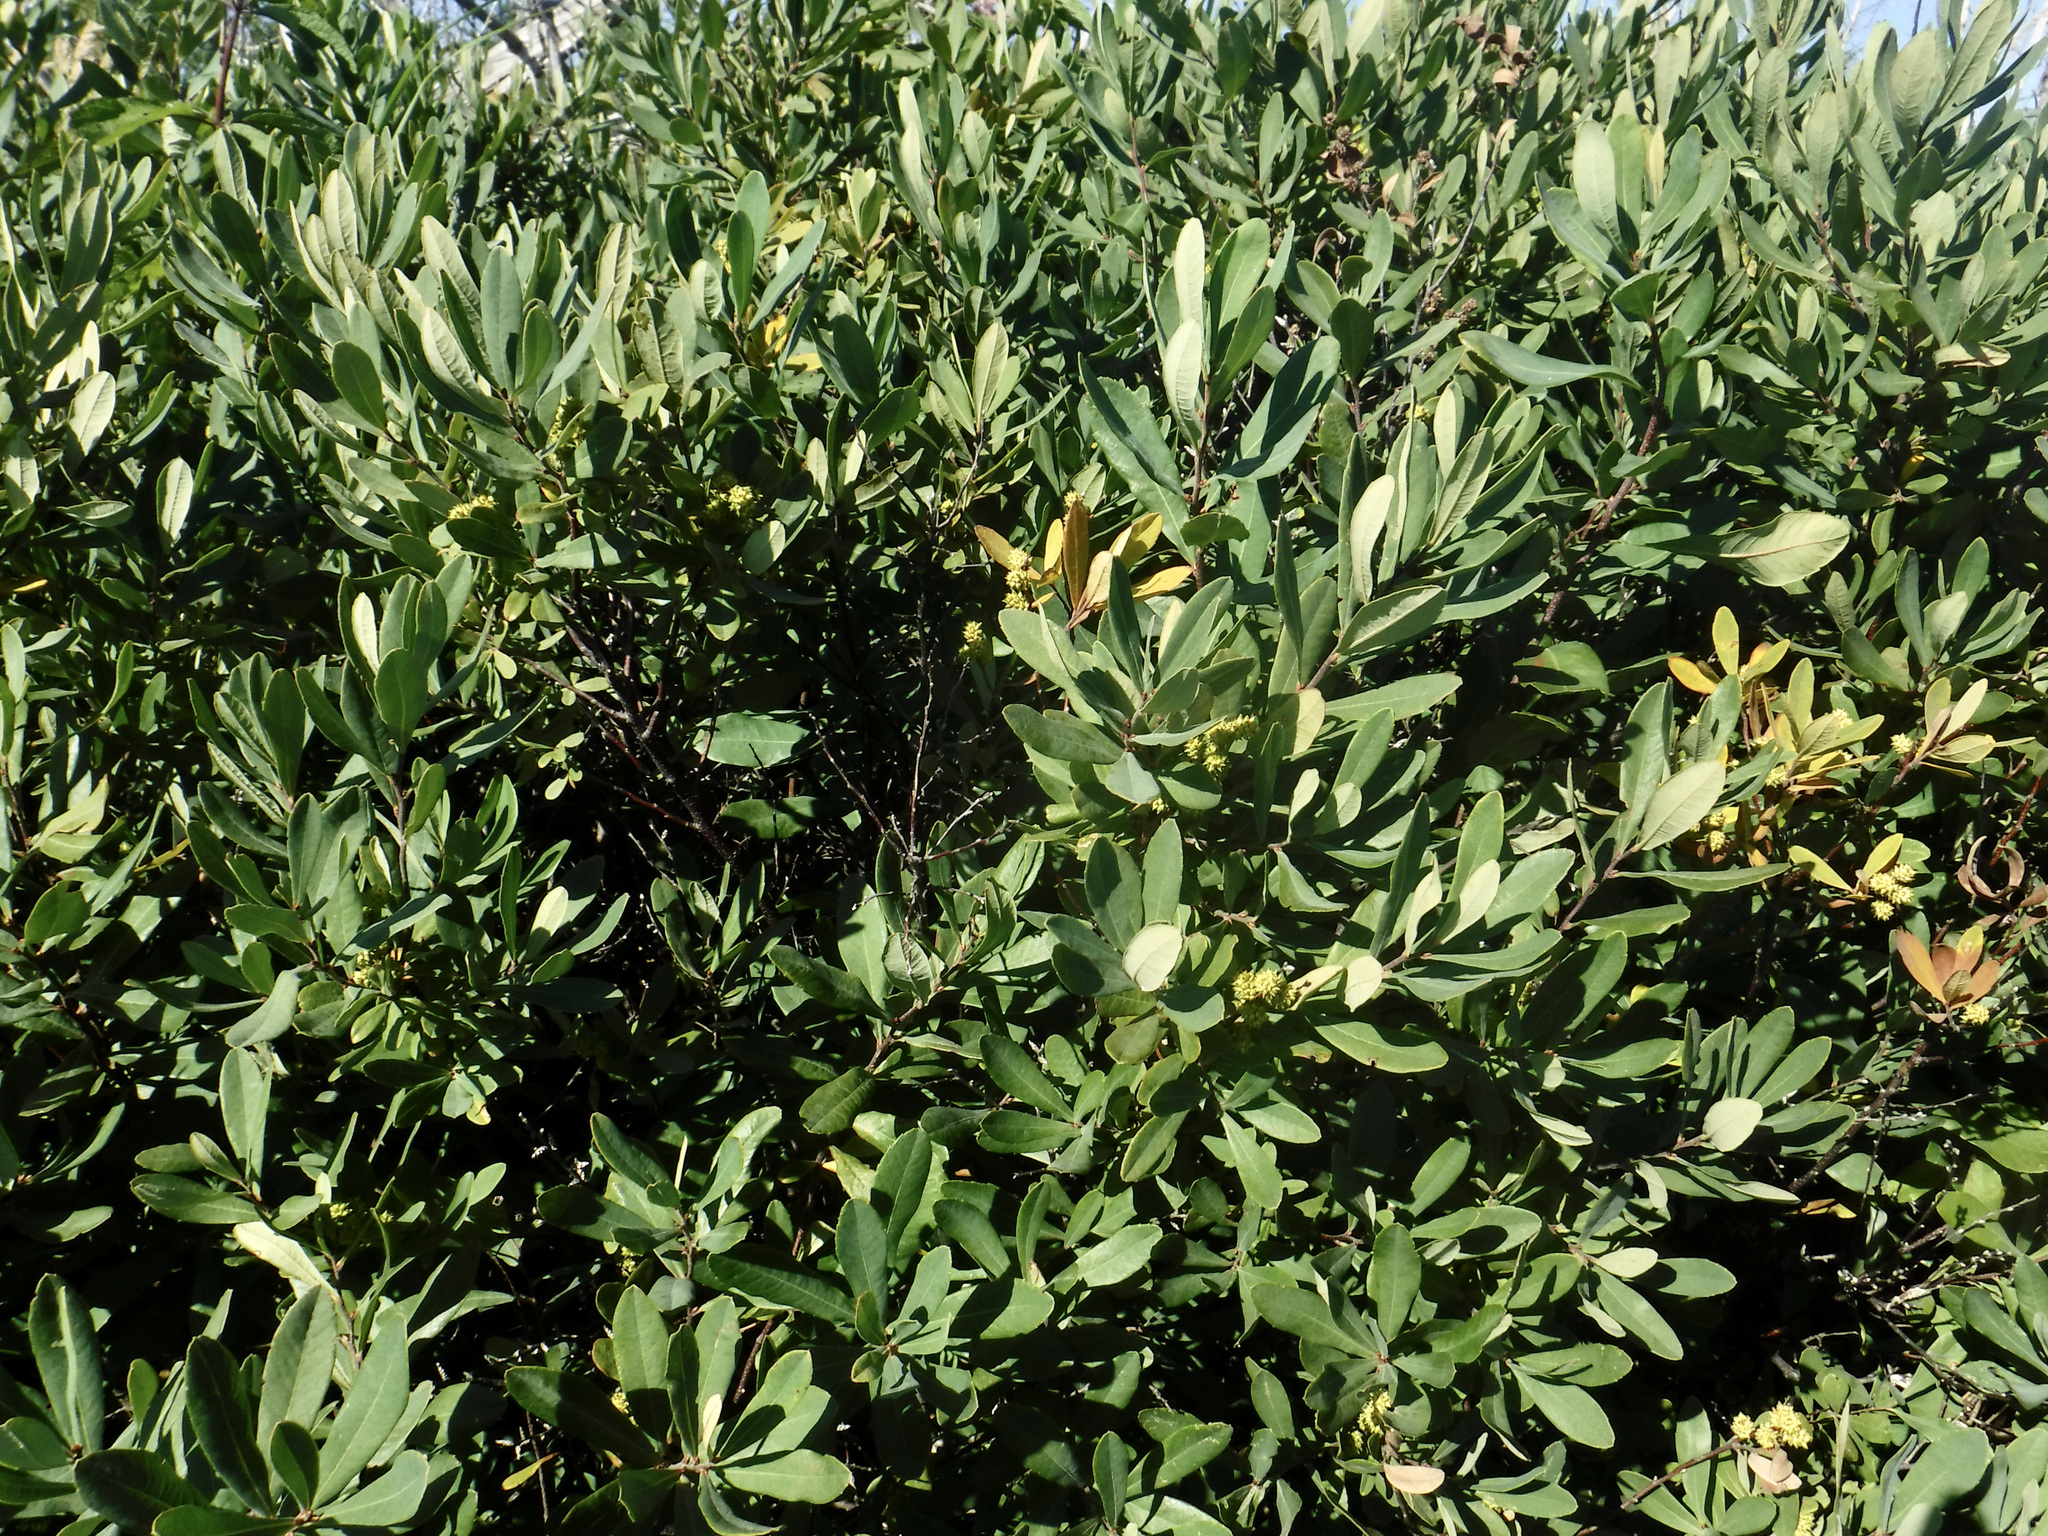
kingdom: Plantae
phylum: Tracheophyta
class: Magnoliopsida
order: Fagales
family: Myricaceae
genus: Myrica
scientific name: Myrica gale
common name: Sweet gale
